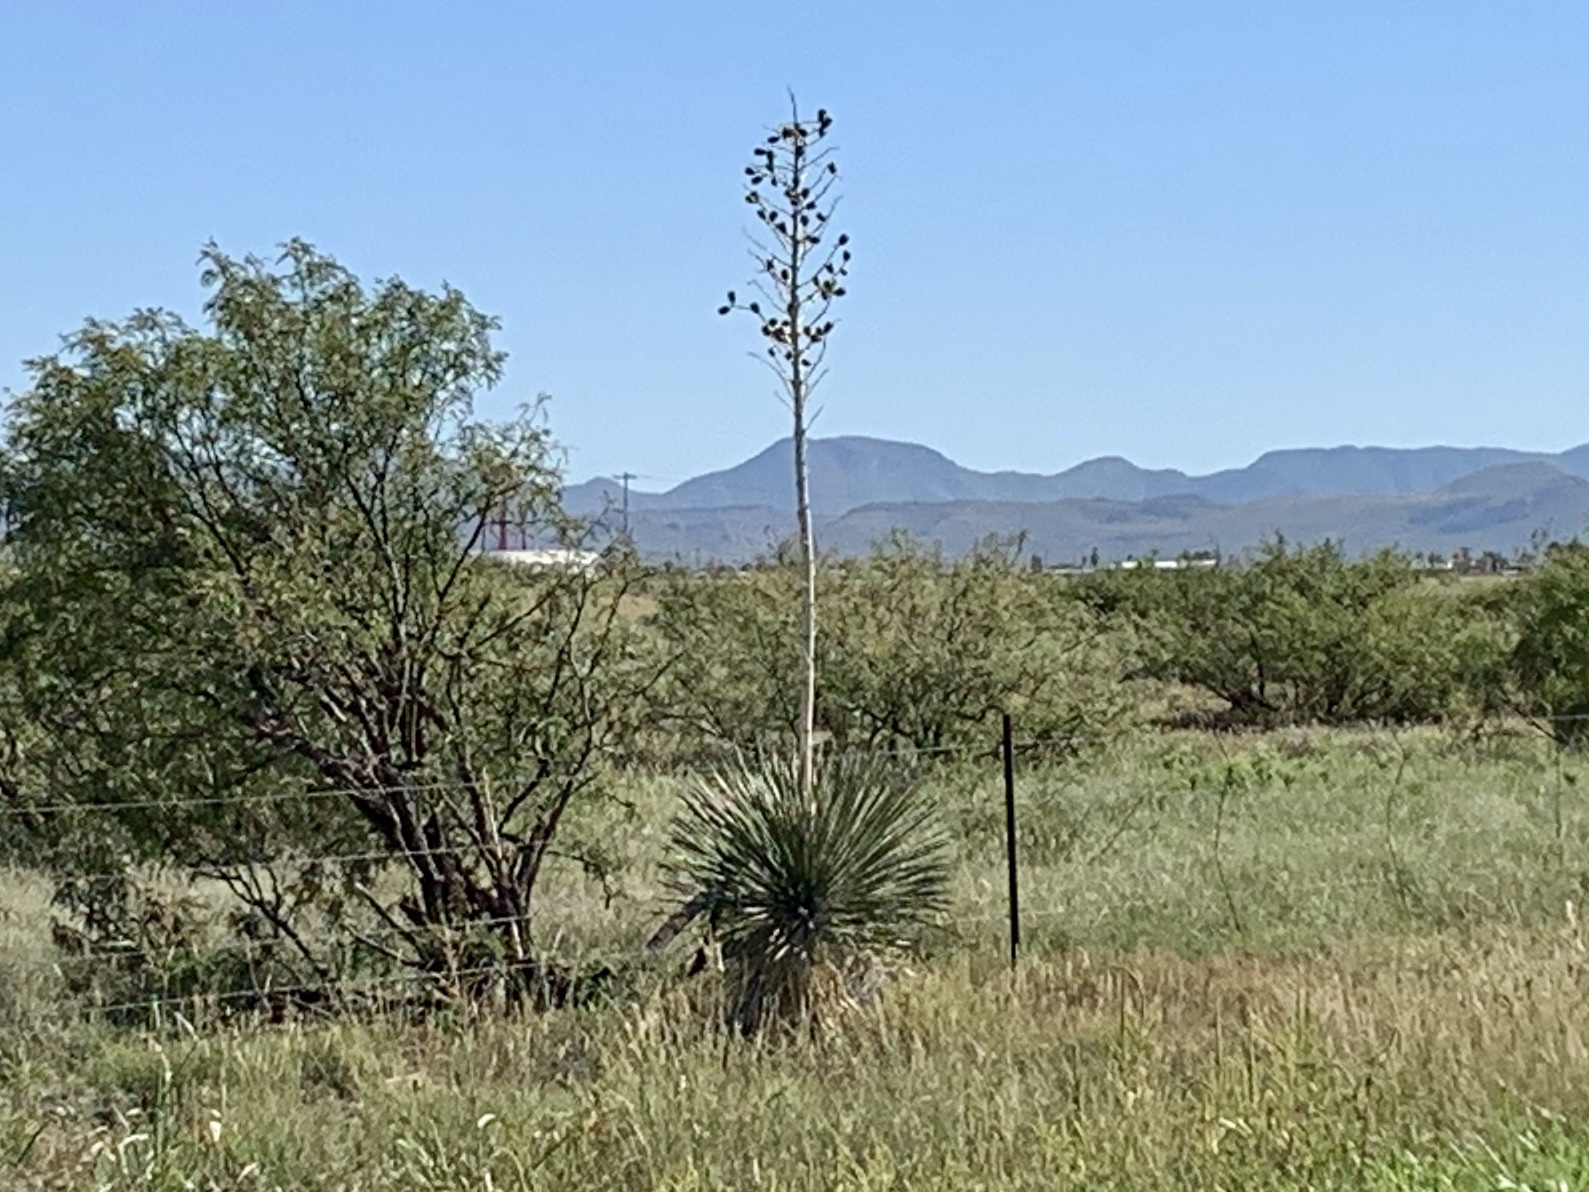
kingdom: Plantae
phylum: Tracheophyta
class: Liliopsida
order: Asparagales
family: Asparagaceae
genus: Yucca
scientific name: Yucca elata
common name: Palmella
